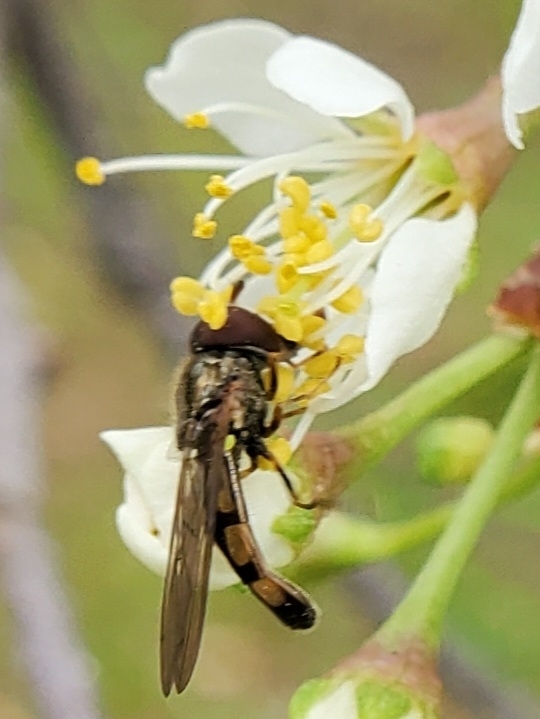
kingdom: Animalia
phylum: Arthropoda
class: Insecta
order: Diptera
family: Syrphidae
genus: Melanostoma
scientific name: Melanostoma mellina
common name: Hover fly
